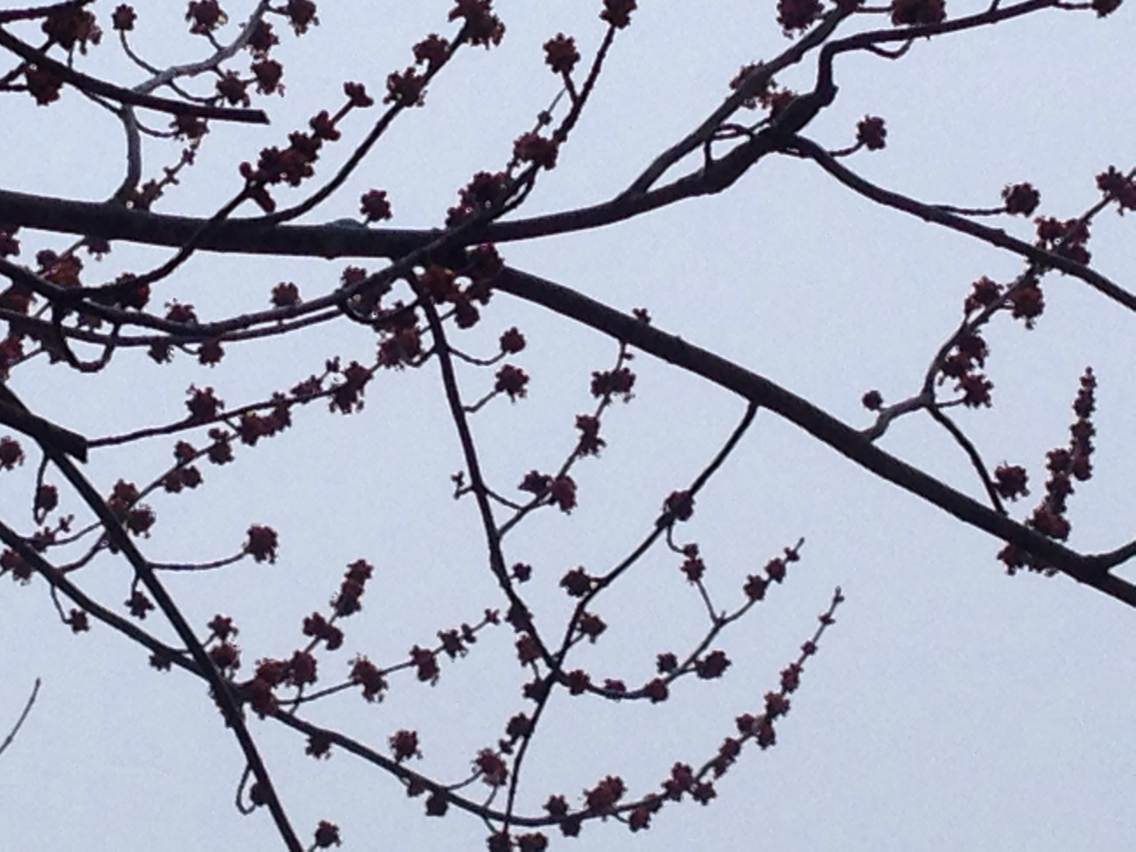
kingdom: Plantae
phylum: Tracheophyta
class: Magnoliopsida
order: Sapindales
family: Sapindaceae
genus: Acer
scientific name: Acer saccharinum
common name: Silver maple
